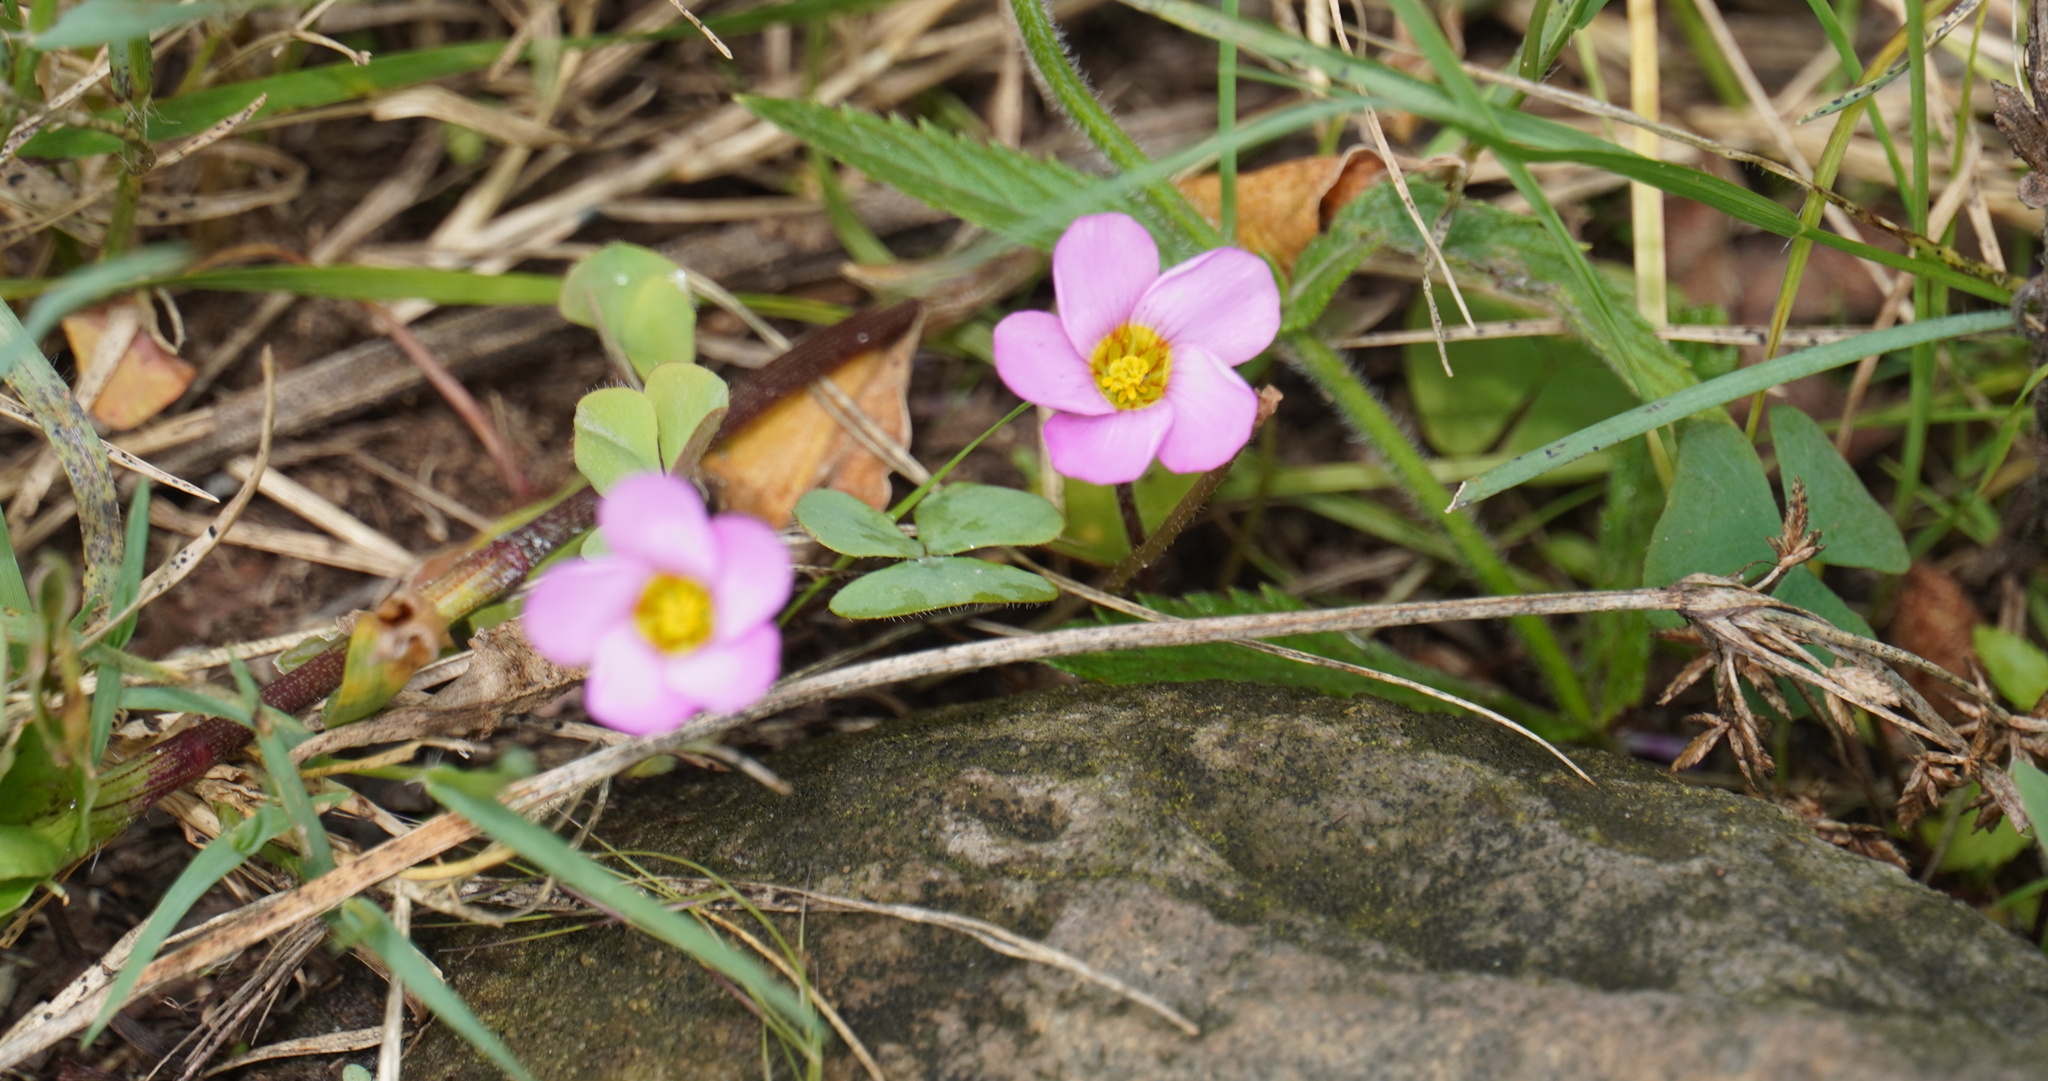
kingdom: Plantae
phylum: Tracheophyta
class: Magnoliopsida
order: Oxalidales
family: Oxalidaceae
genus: Oxalis
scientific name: Oxalis obliquifolia
